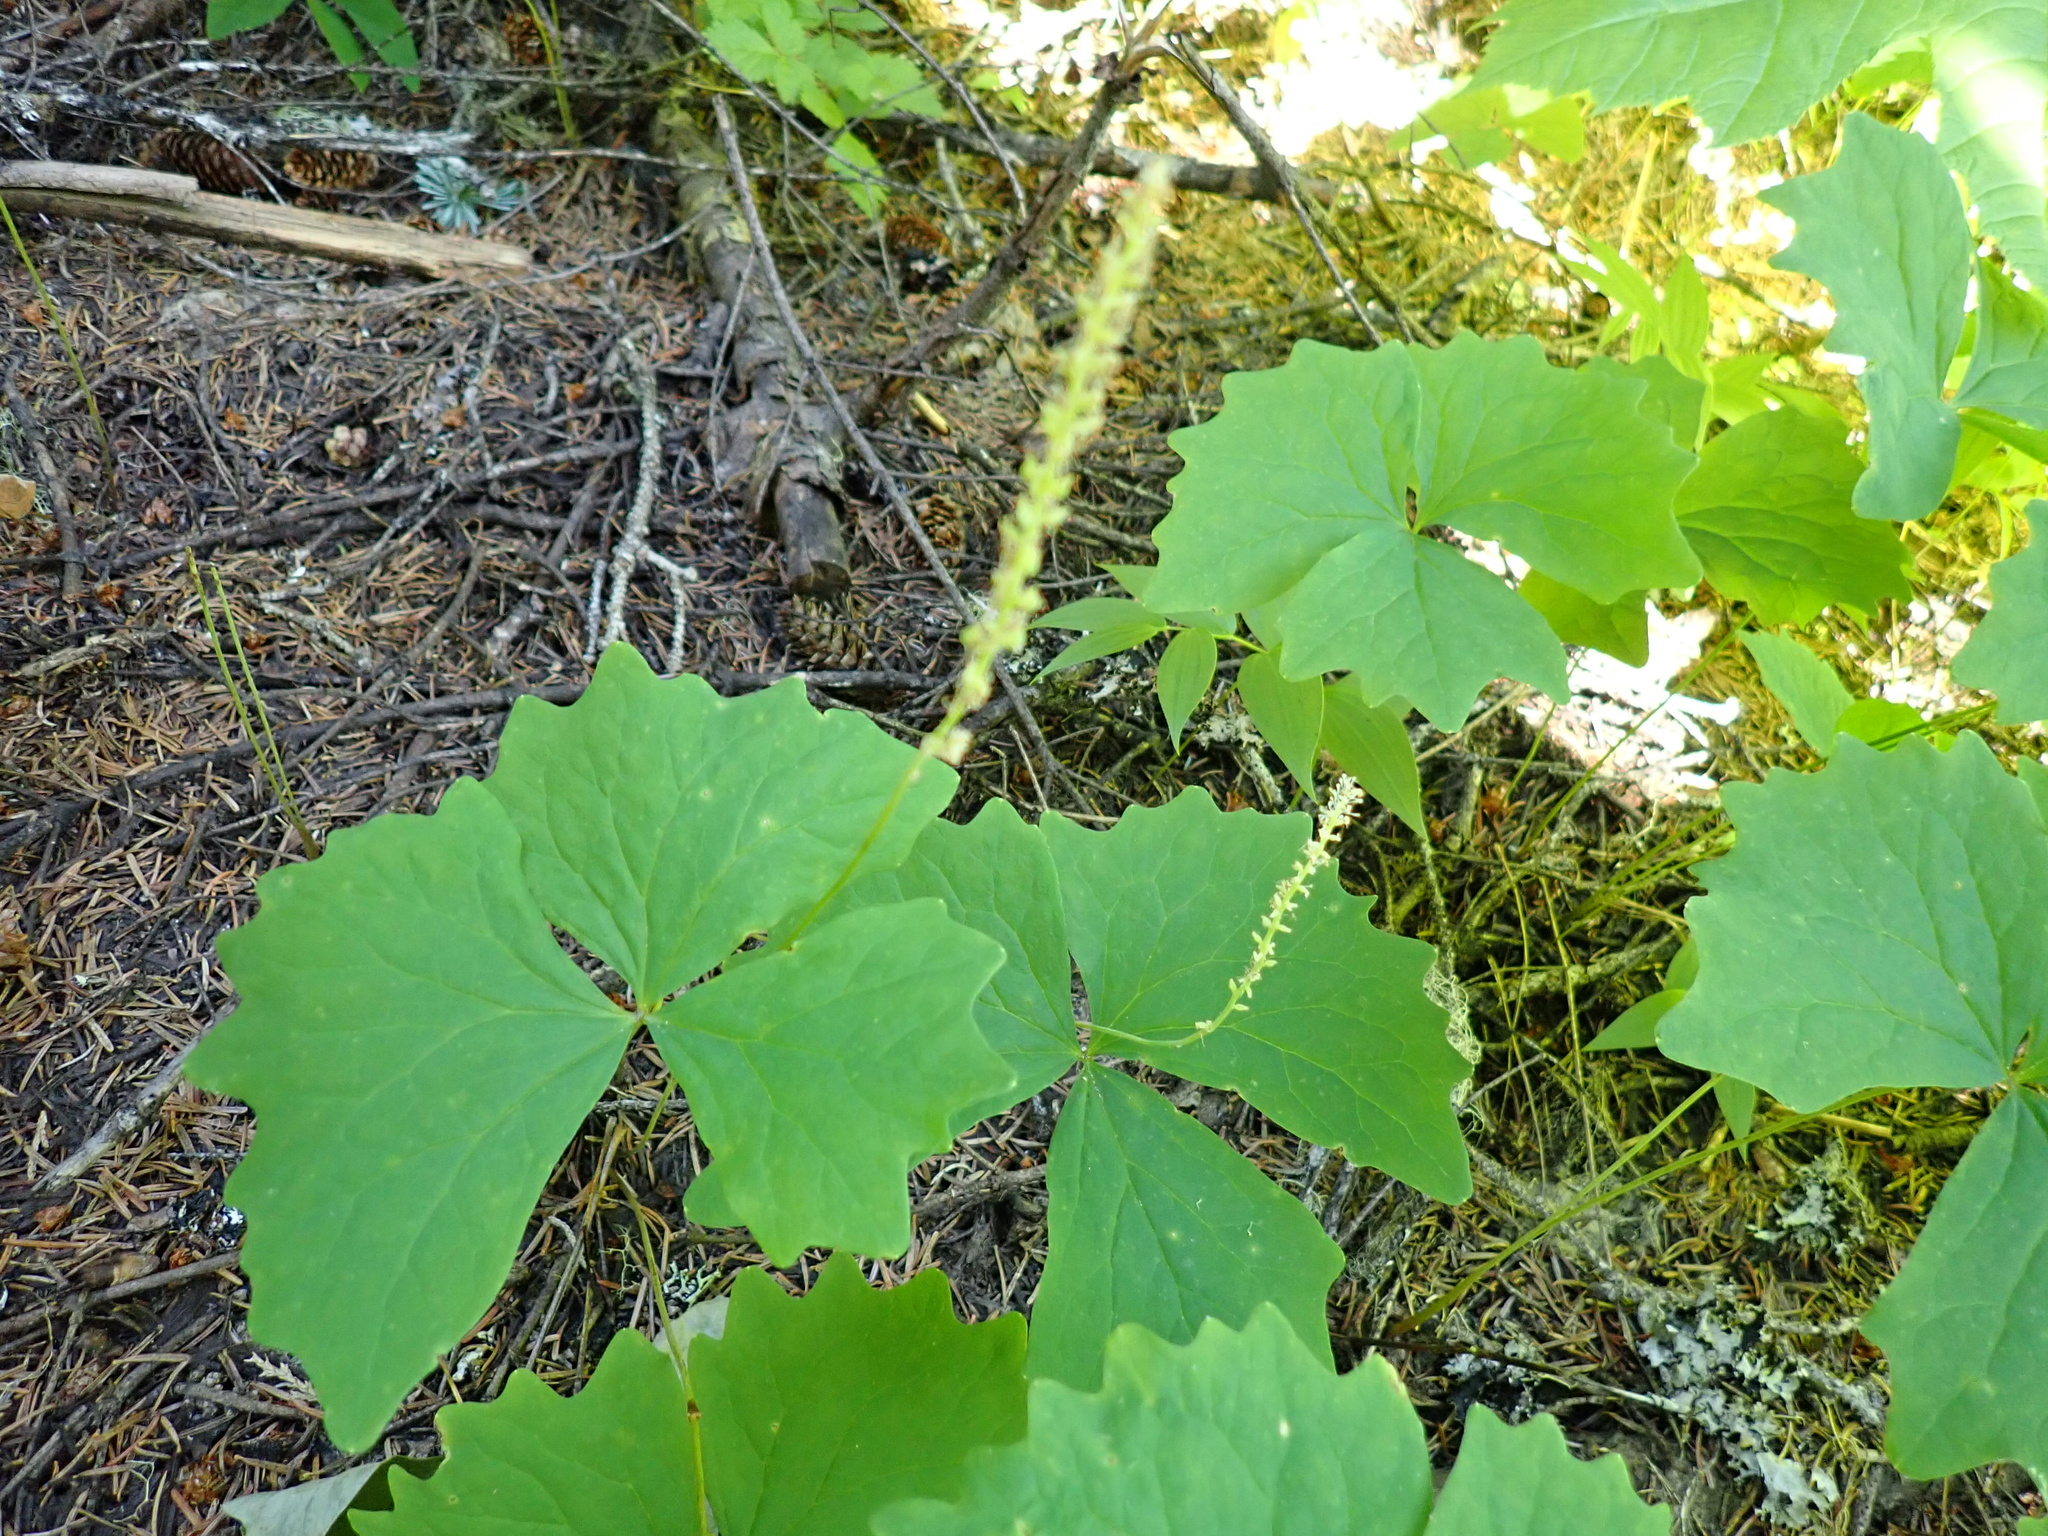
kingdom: Plantae
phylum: Tracheophyta
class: Magnoliopsida
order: Ranunculales
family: Berberidaceae
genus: Achlys
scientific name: Achlys triphylla
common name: Vanilla-leaf
